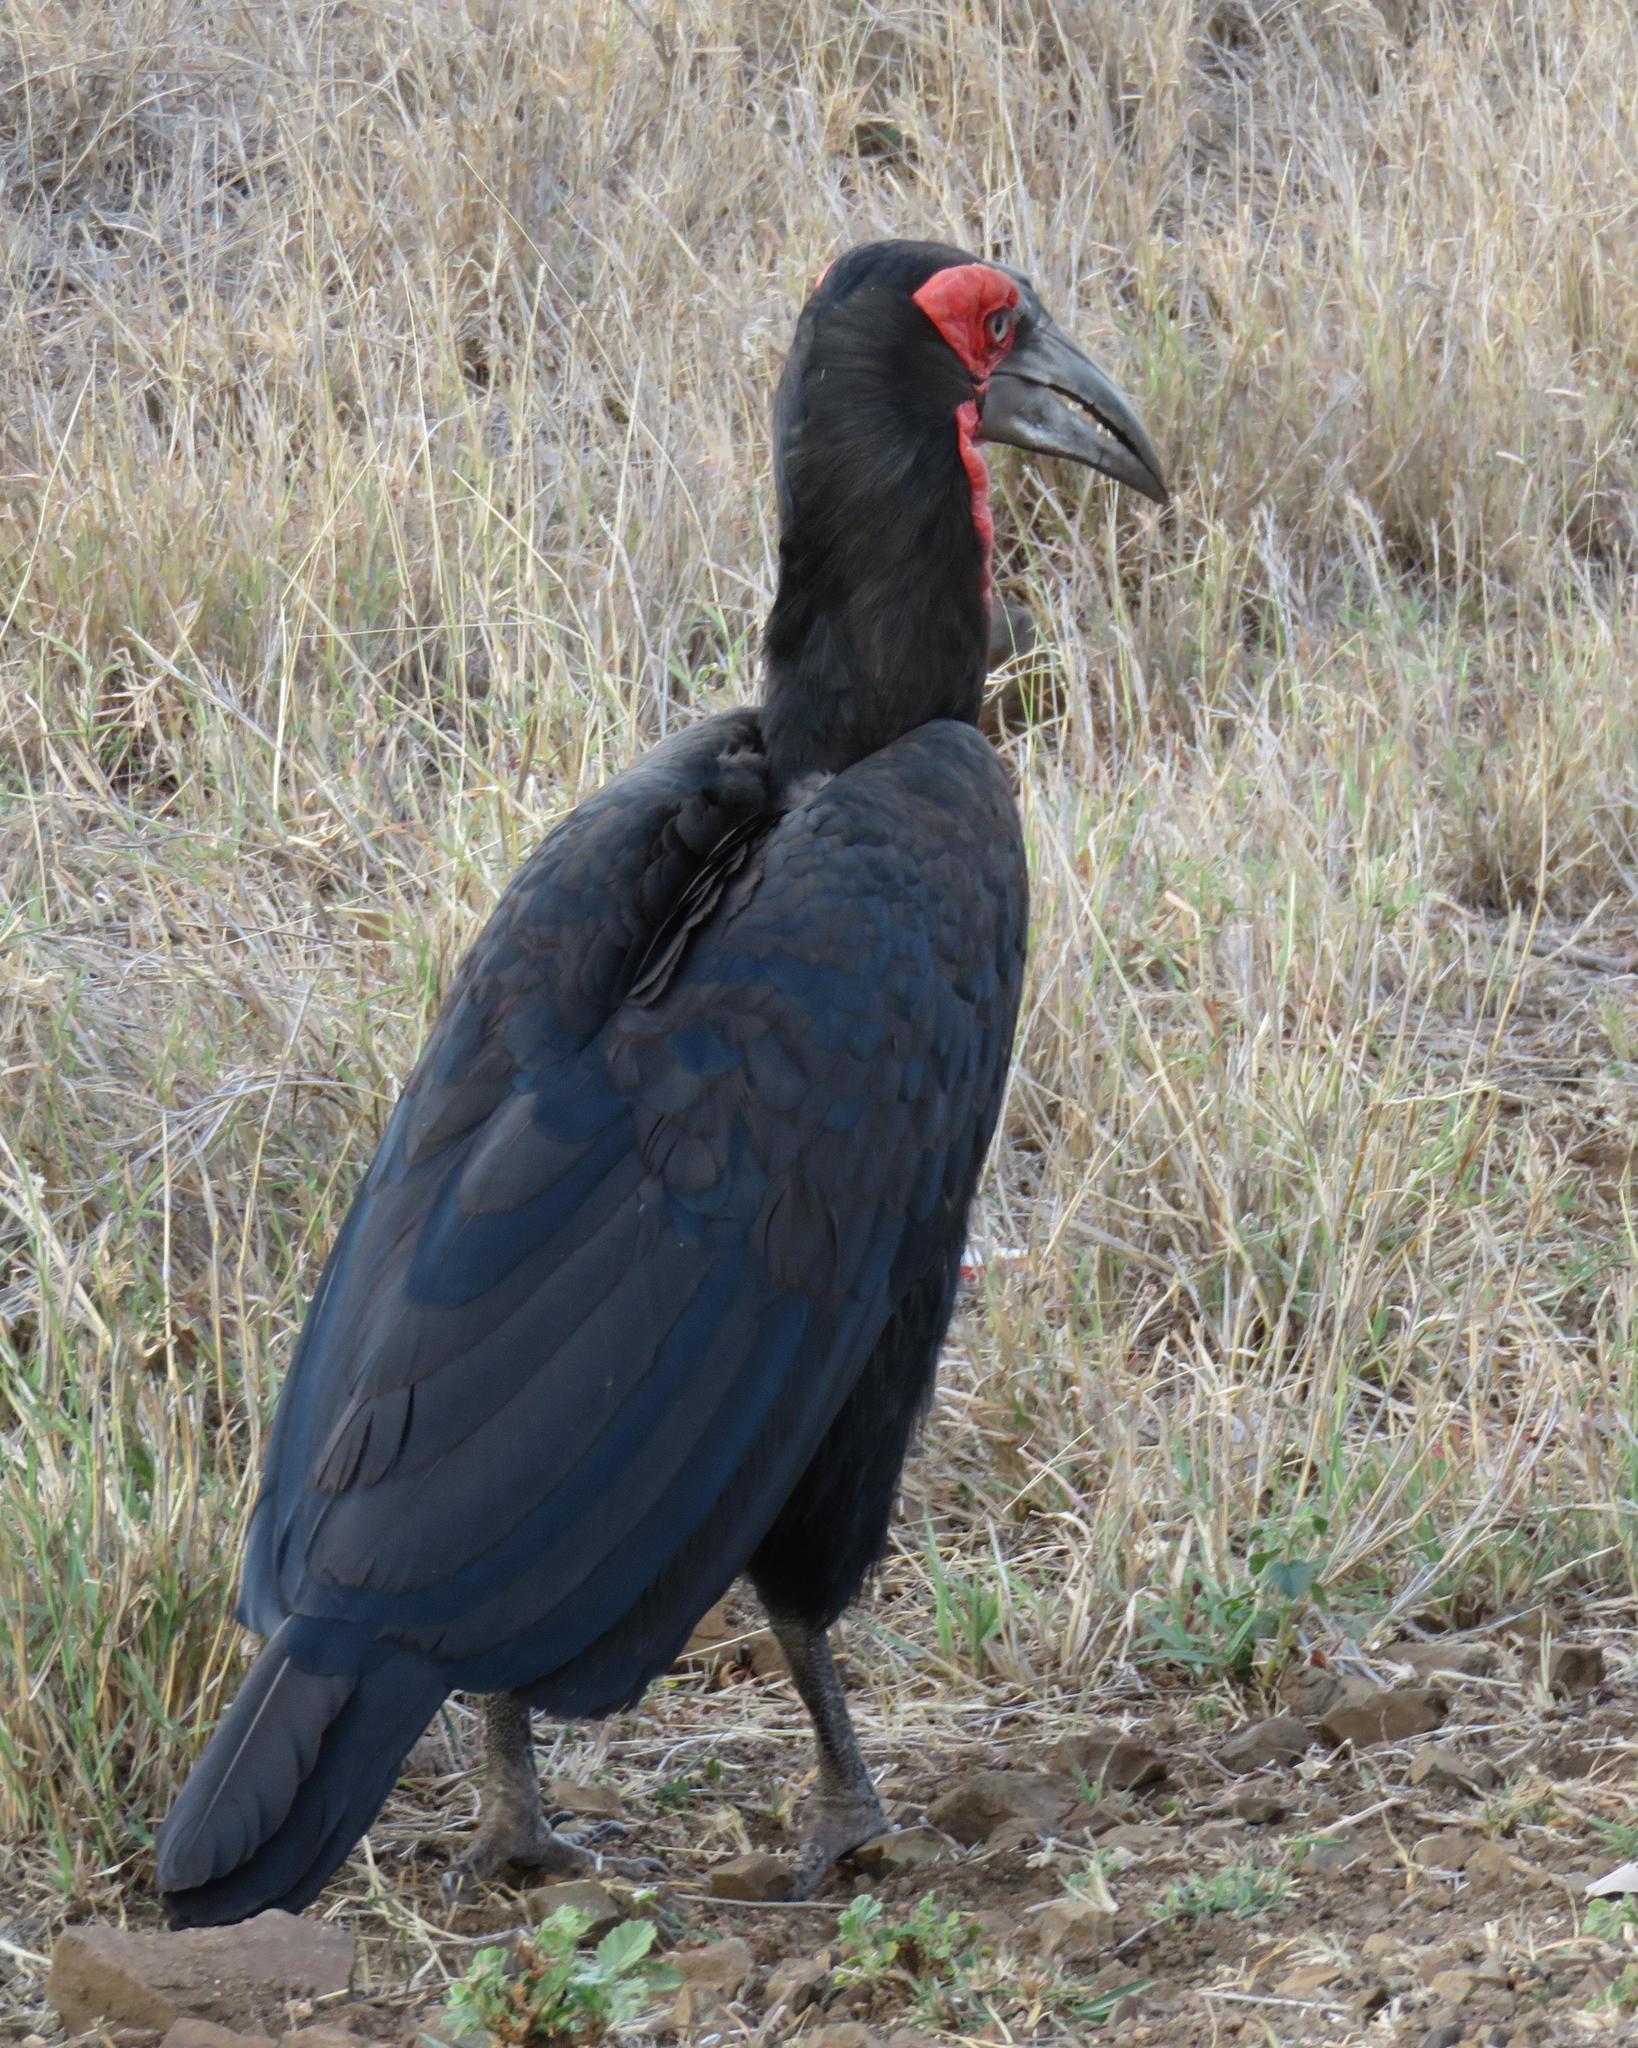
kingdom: Animalia
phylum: Chordata
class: Aves
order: Bucerotiformes
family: Bucorvidae
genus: Bucorvus
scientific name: Bucorvus leadbeateri
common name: Southern ground-hornbill
